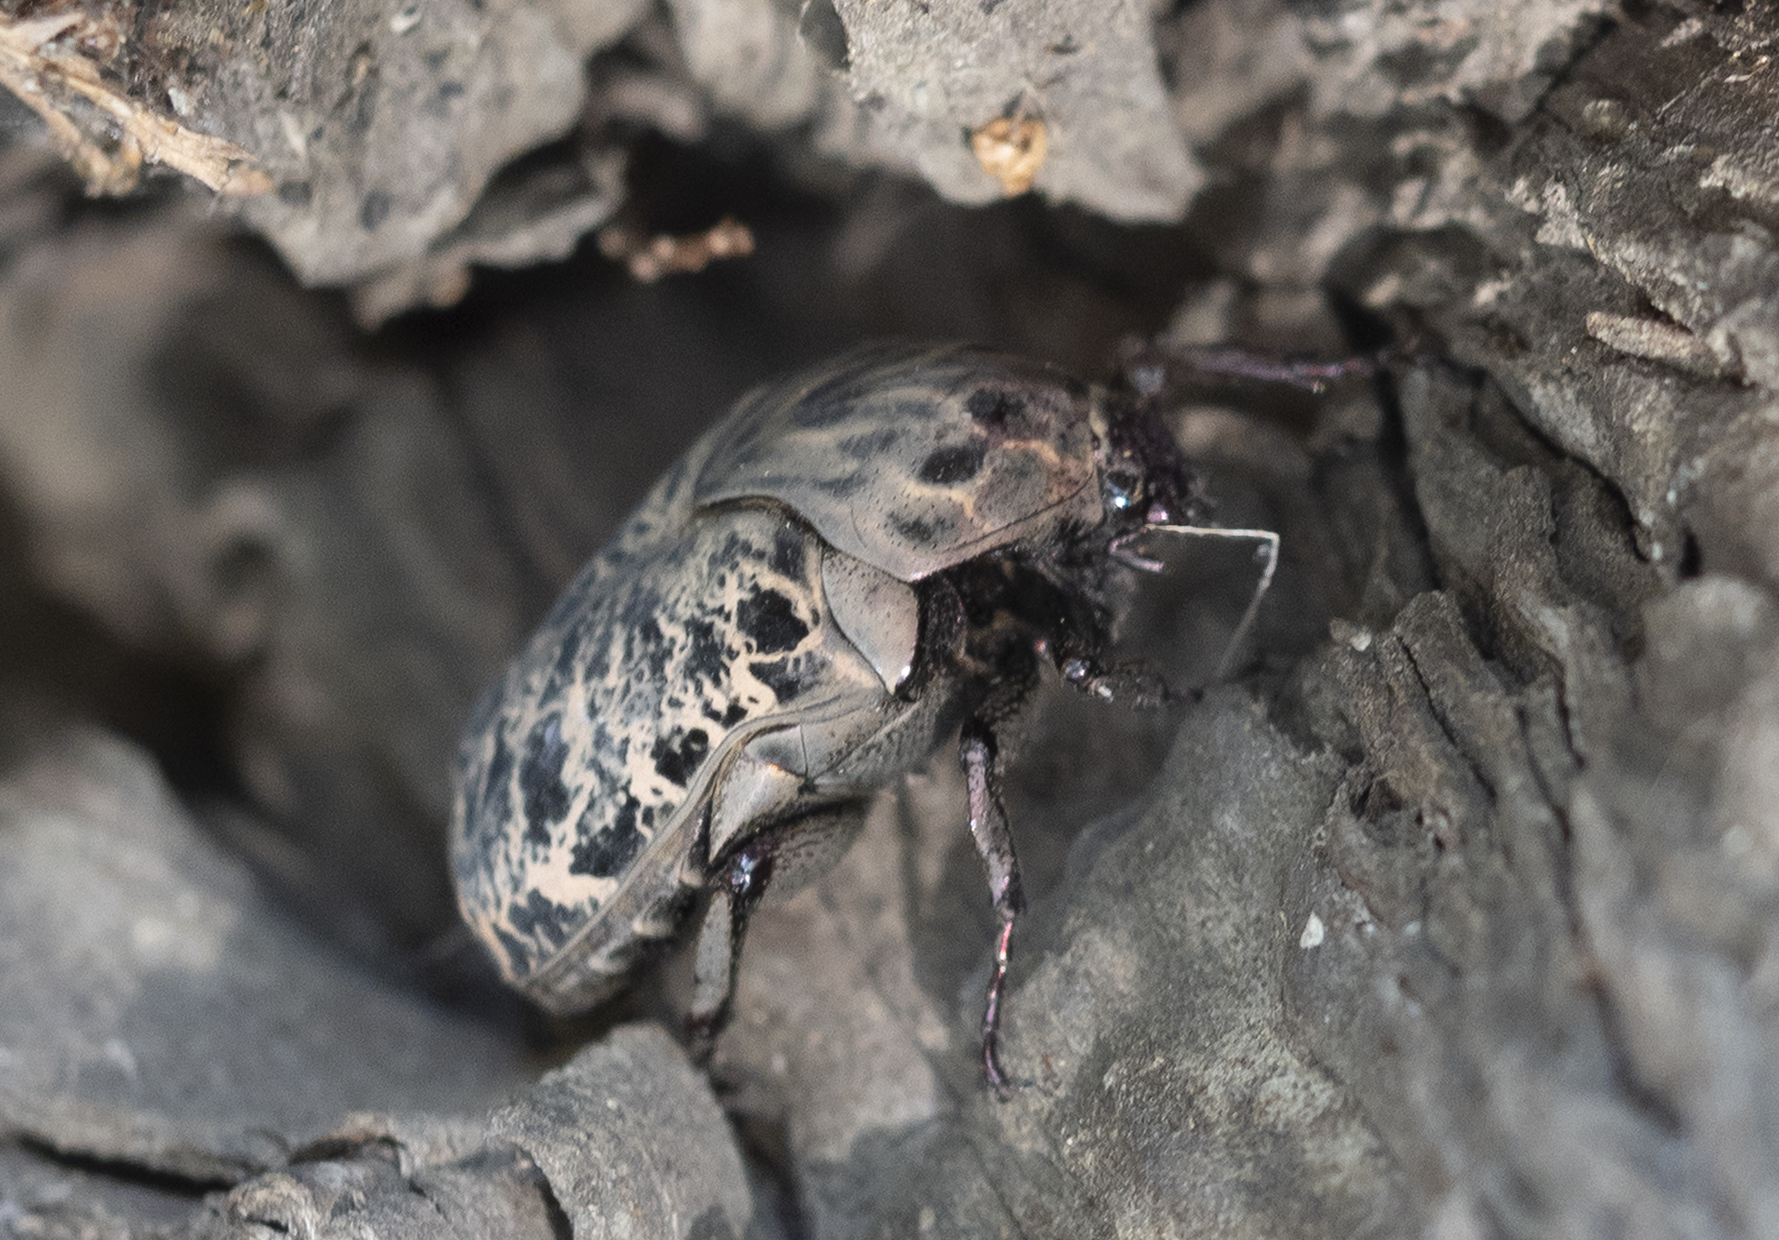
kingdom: Animalia
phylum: Arthropoda
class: Insecta
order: Coleoptera
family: Scarabaeidae
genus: Gymnetis
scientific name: Gymnetis chalcipes
